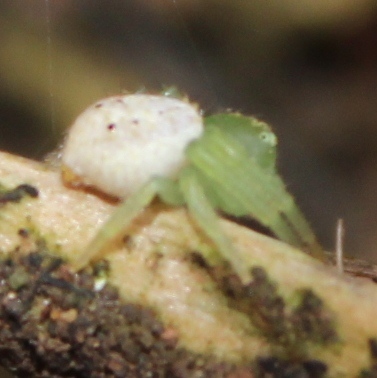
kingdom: Animalia
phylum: Arthropoda
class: Arachnida
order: Araneae
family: Thomisidae
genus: Synema
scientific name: Synema riflense
